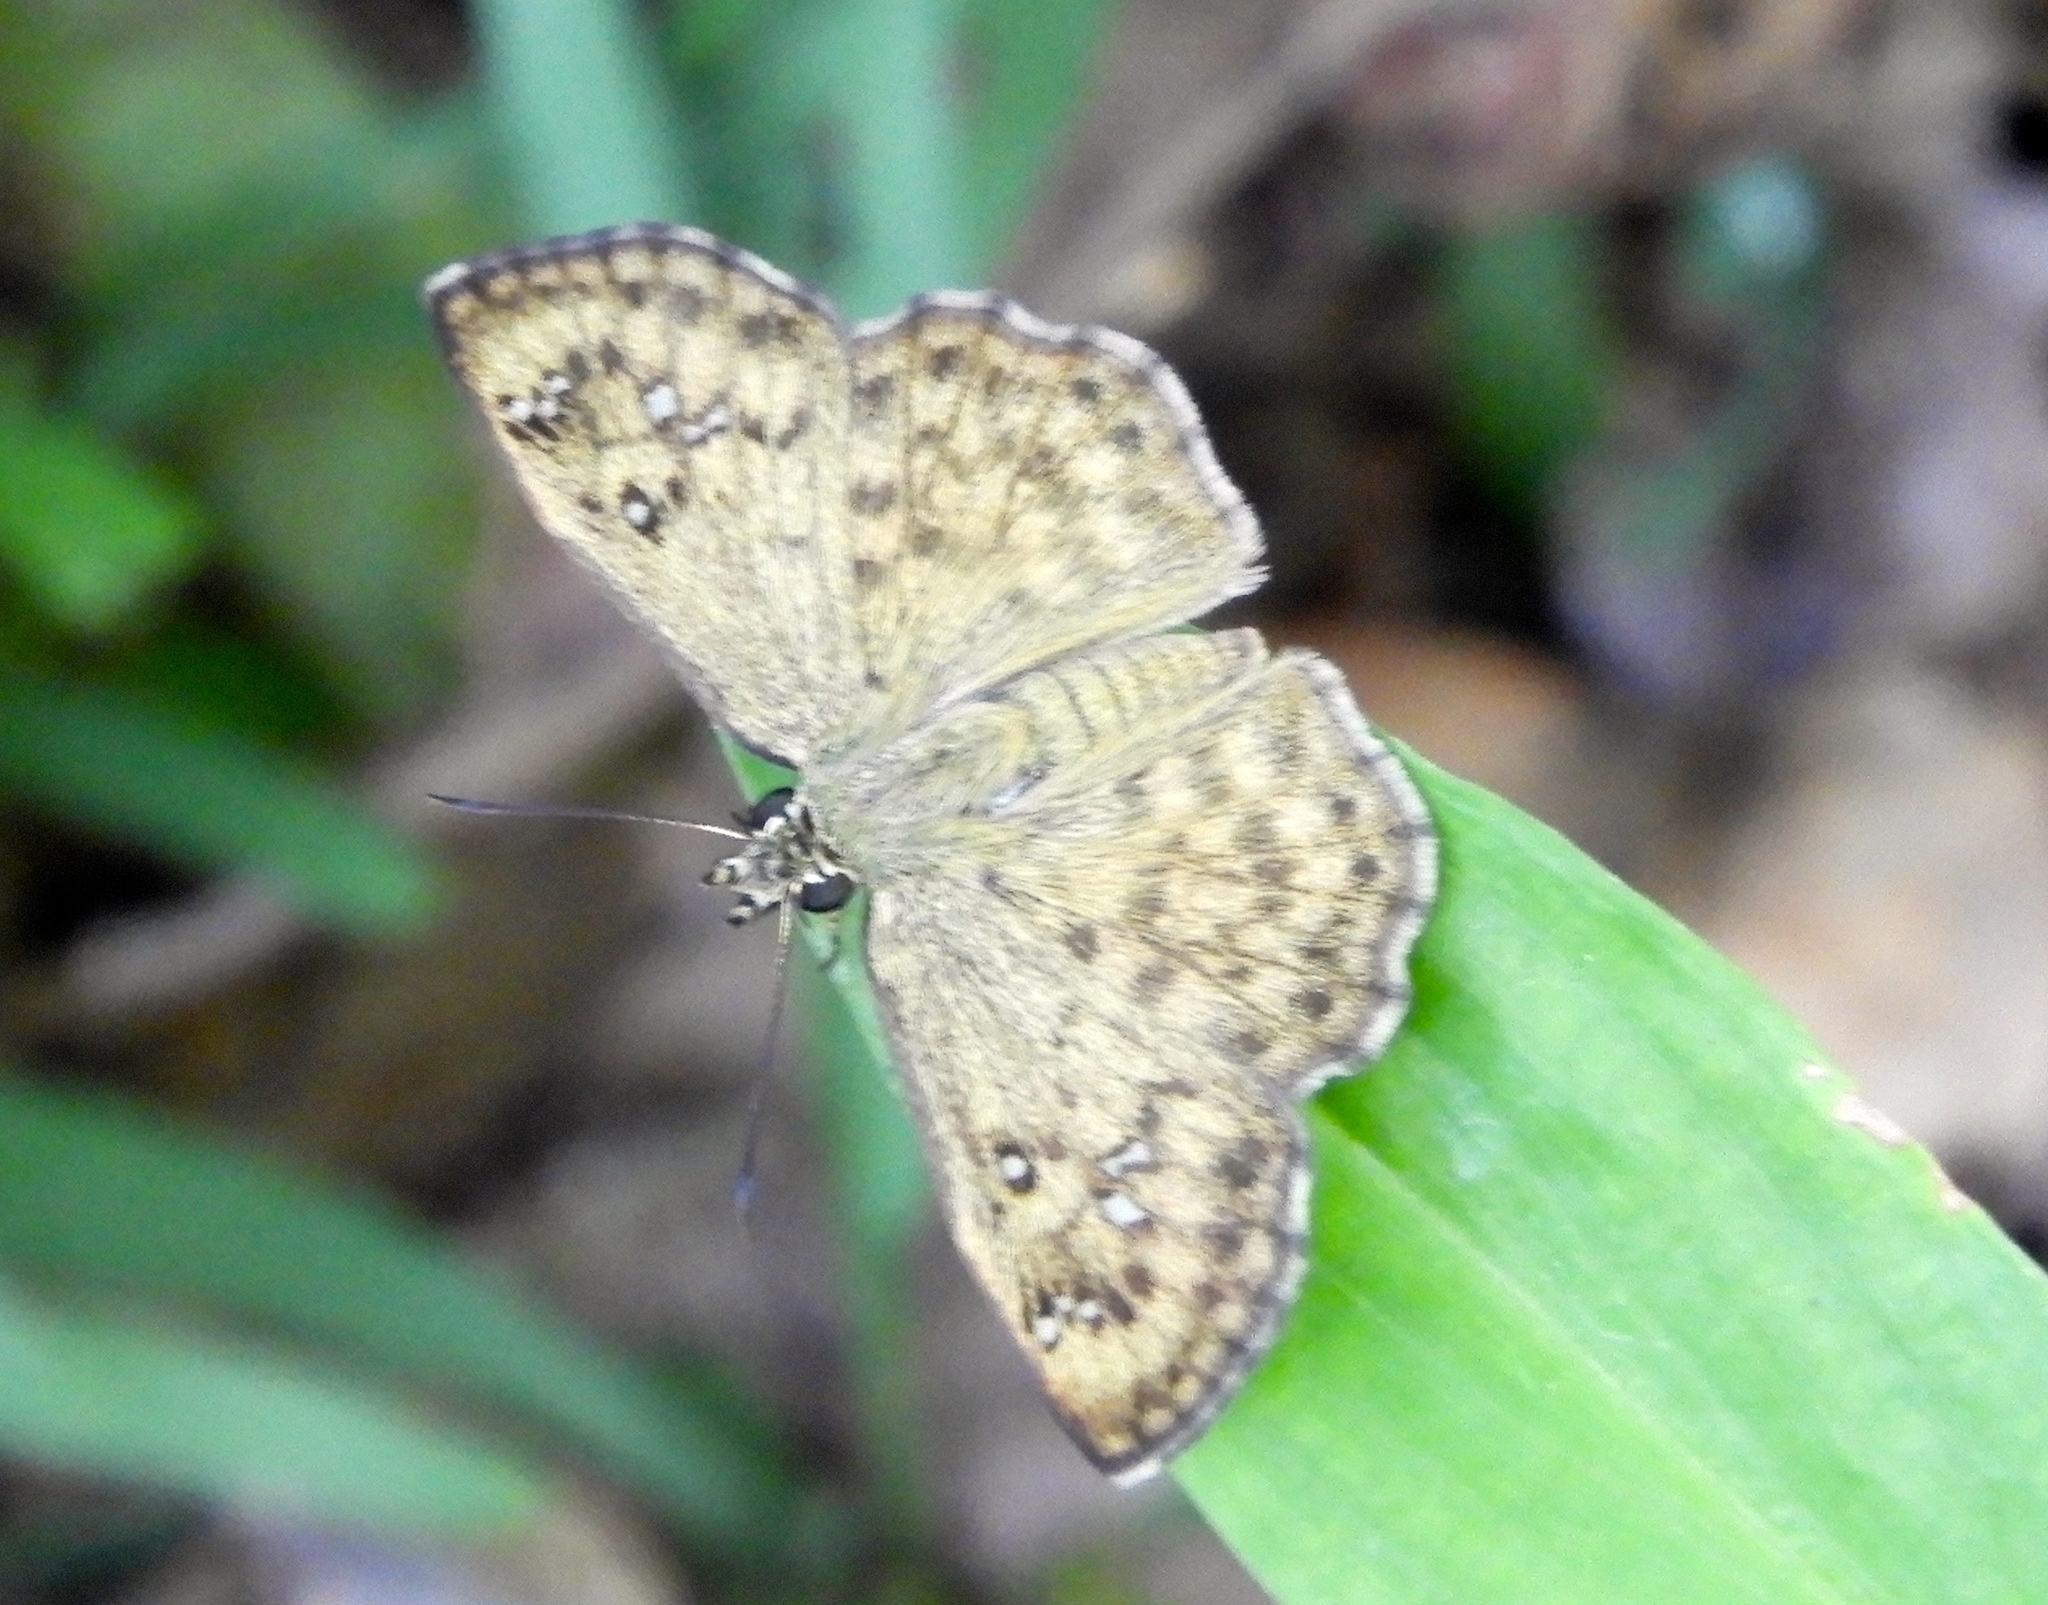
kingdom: Animalia
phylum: Arthropoda
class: Insecta
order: Lepidoptera
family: Hesperiidae
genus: Carrhenes
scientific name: Carrhenes
